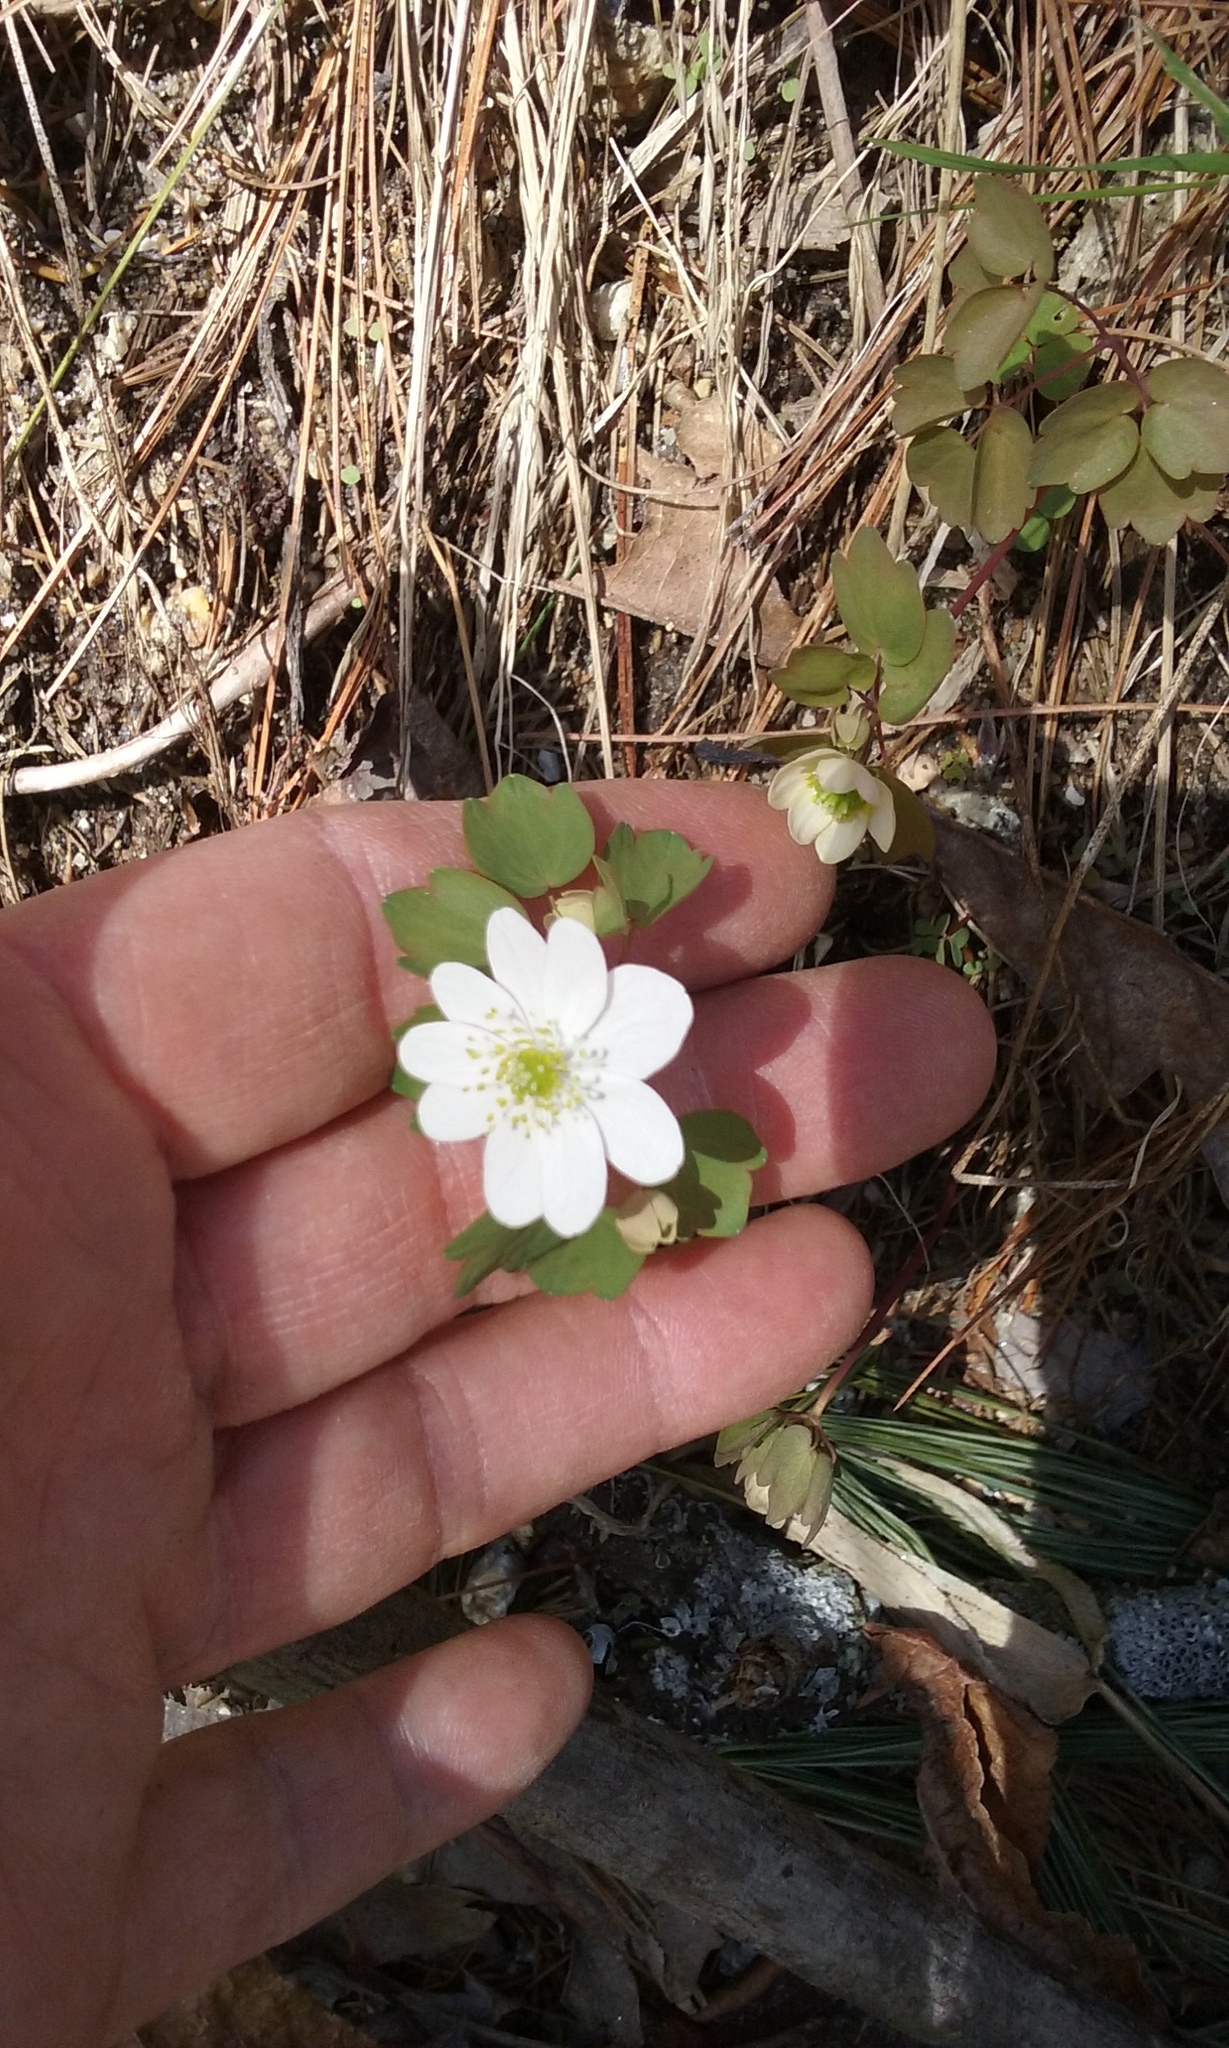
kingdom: Plantae
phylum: Tracheophyta
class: Magnoliopsida
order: Ranunculales
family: Ranunculaceae
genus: Thalictrum
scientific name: Thalictrum thalictroides
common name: Rue-anemone
